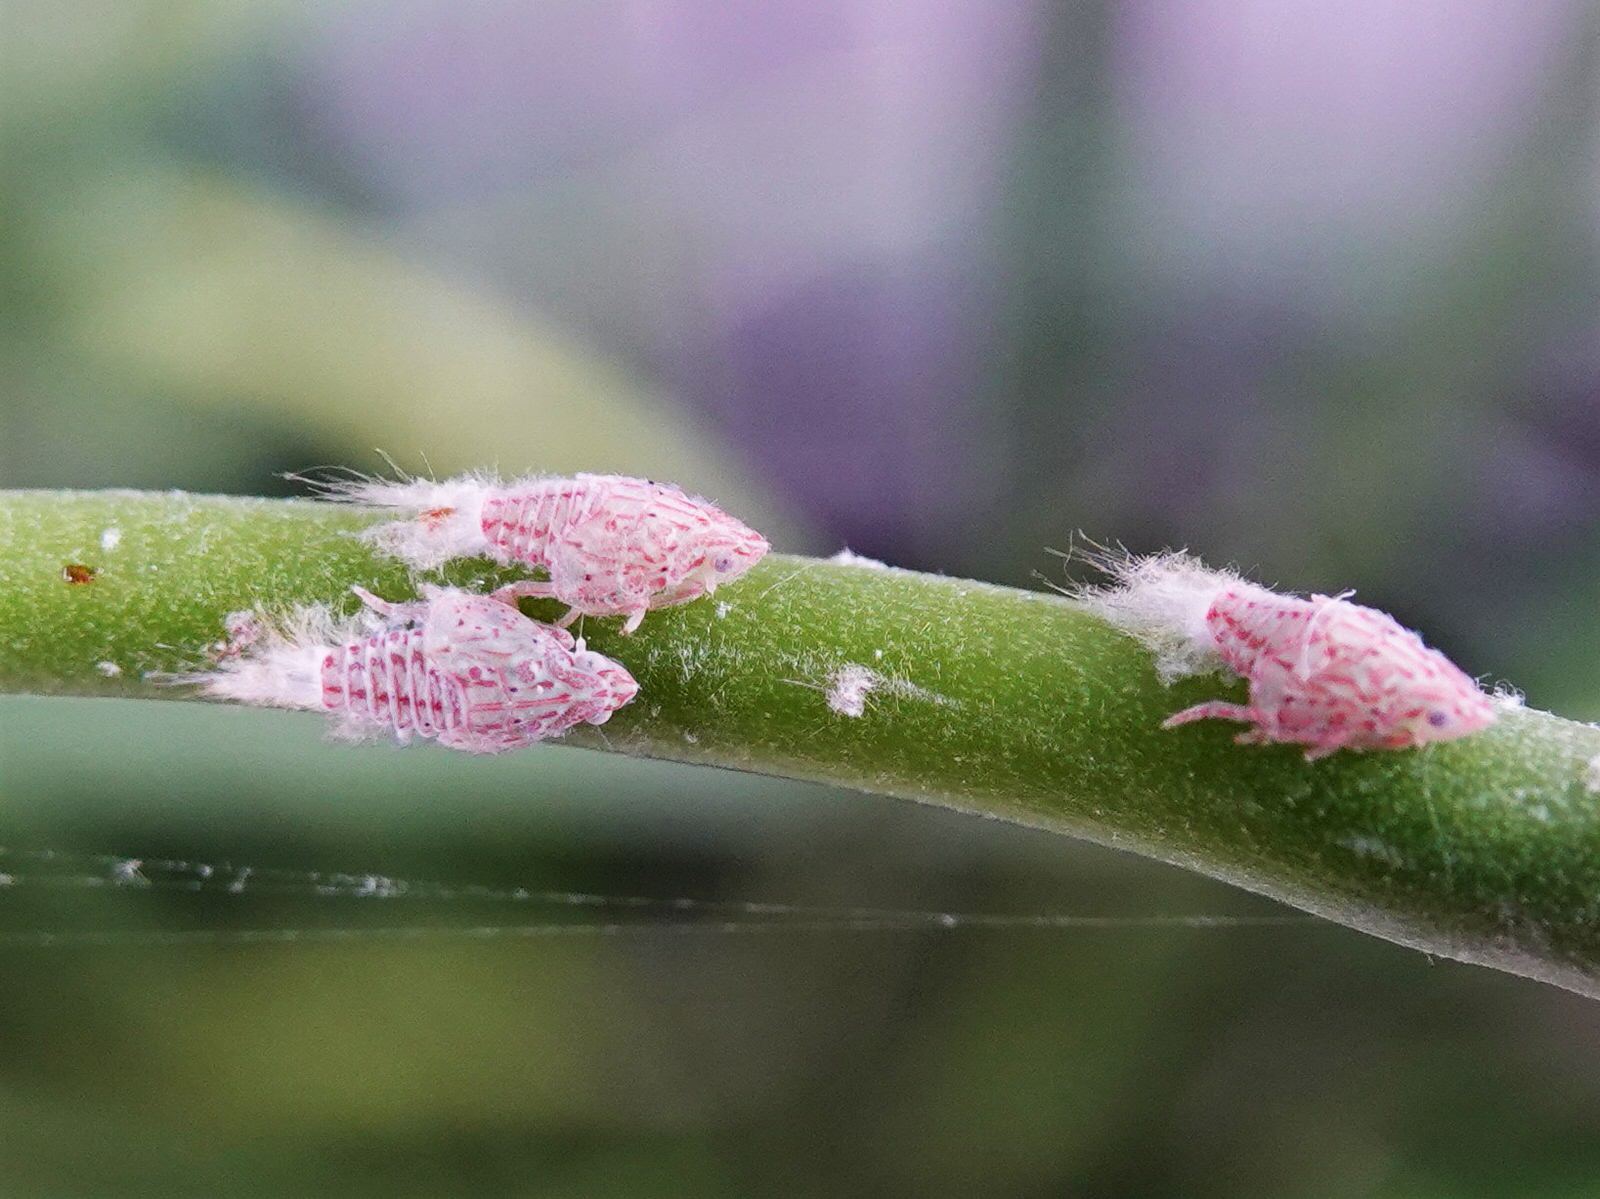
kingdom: Animalia
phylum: Arthropoda
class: Insecta
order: Hemiptera
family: Flatidae
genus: Siphanta
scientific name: Siphanta acuta
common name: Torpedo bug
